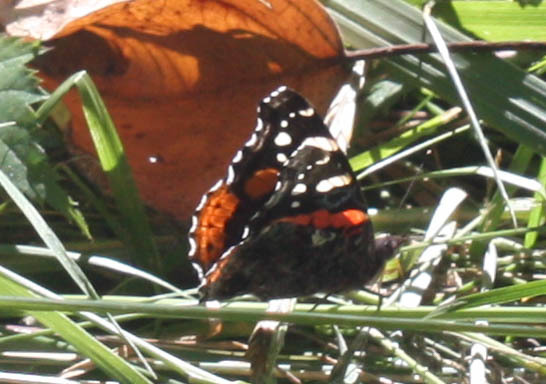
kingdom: Animalia
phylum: Arthropoda
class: Insecta
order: Lepidoptera
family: Nymphalidae
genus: Vanessa
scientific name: Vanessa atalanta
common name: Red admiral
